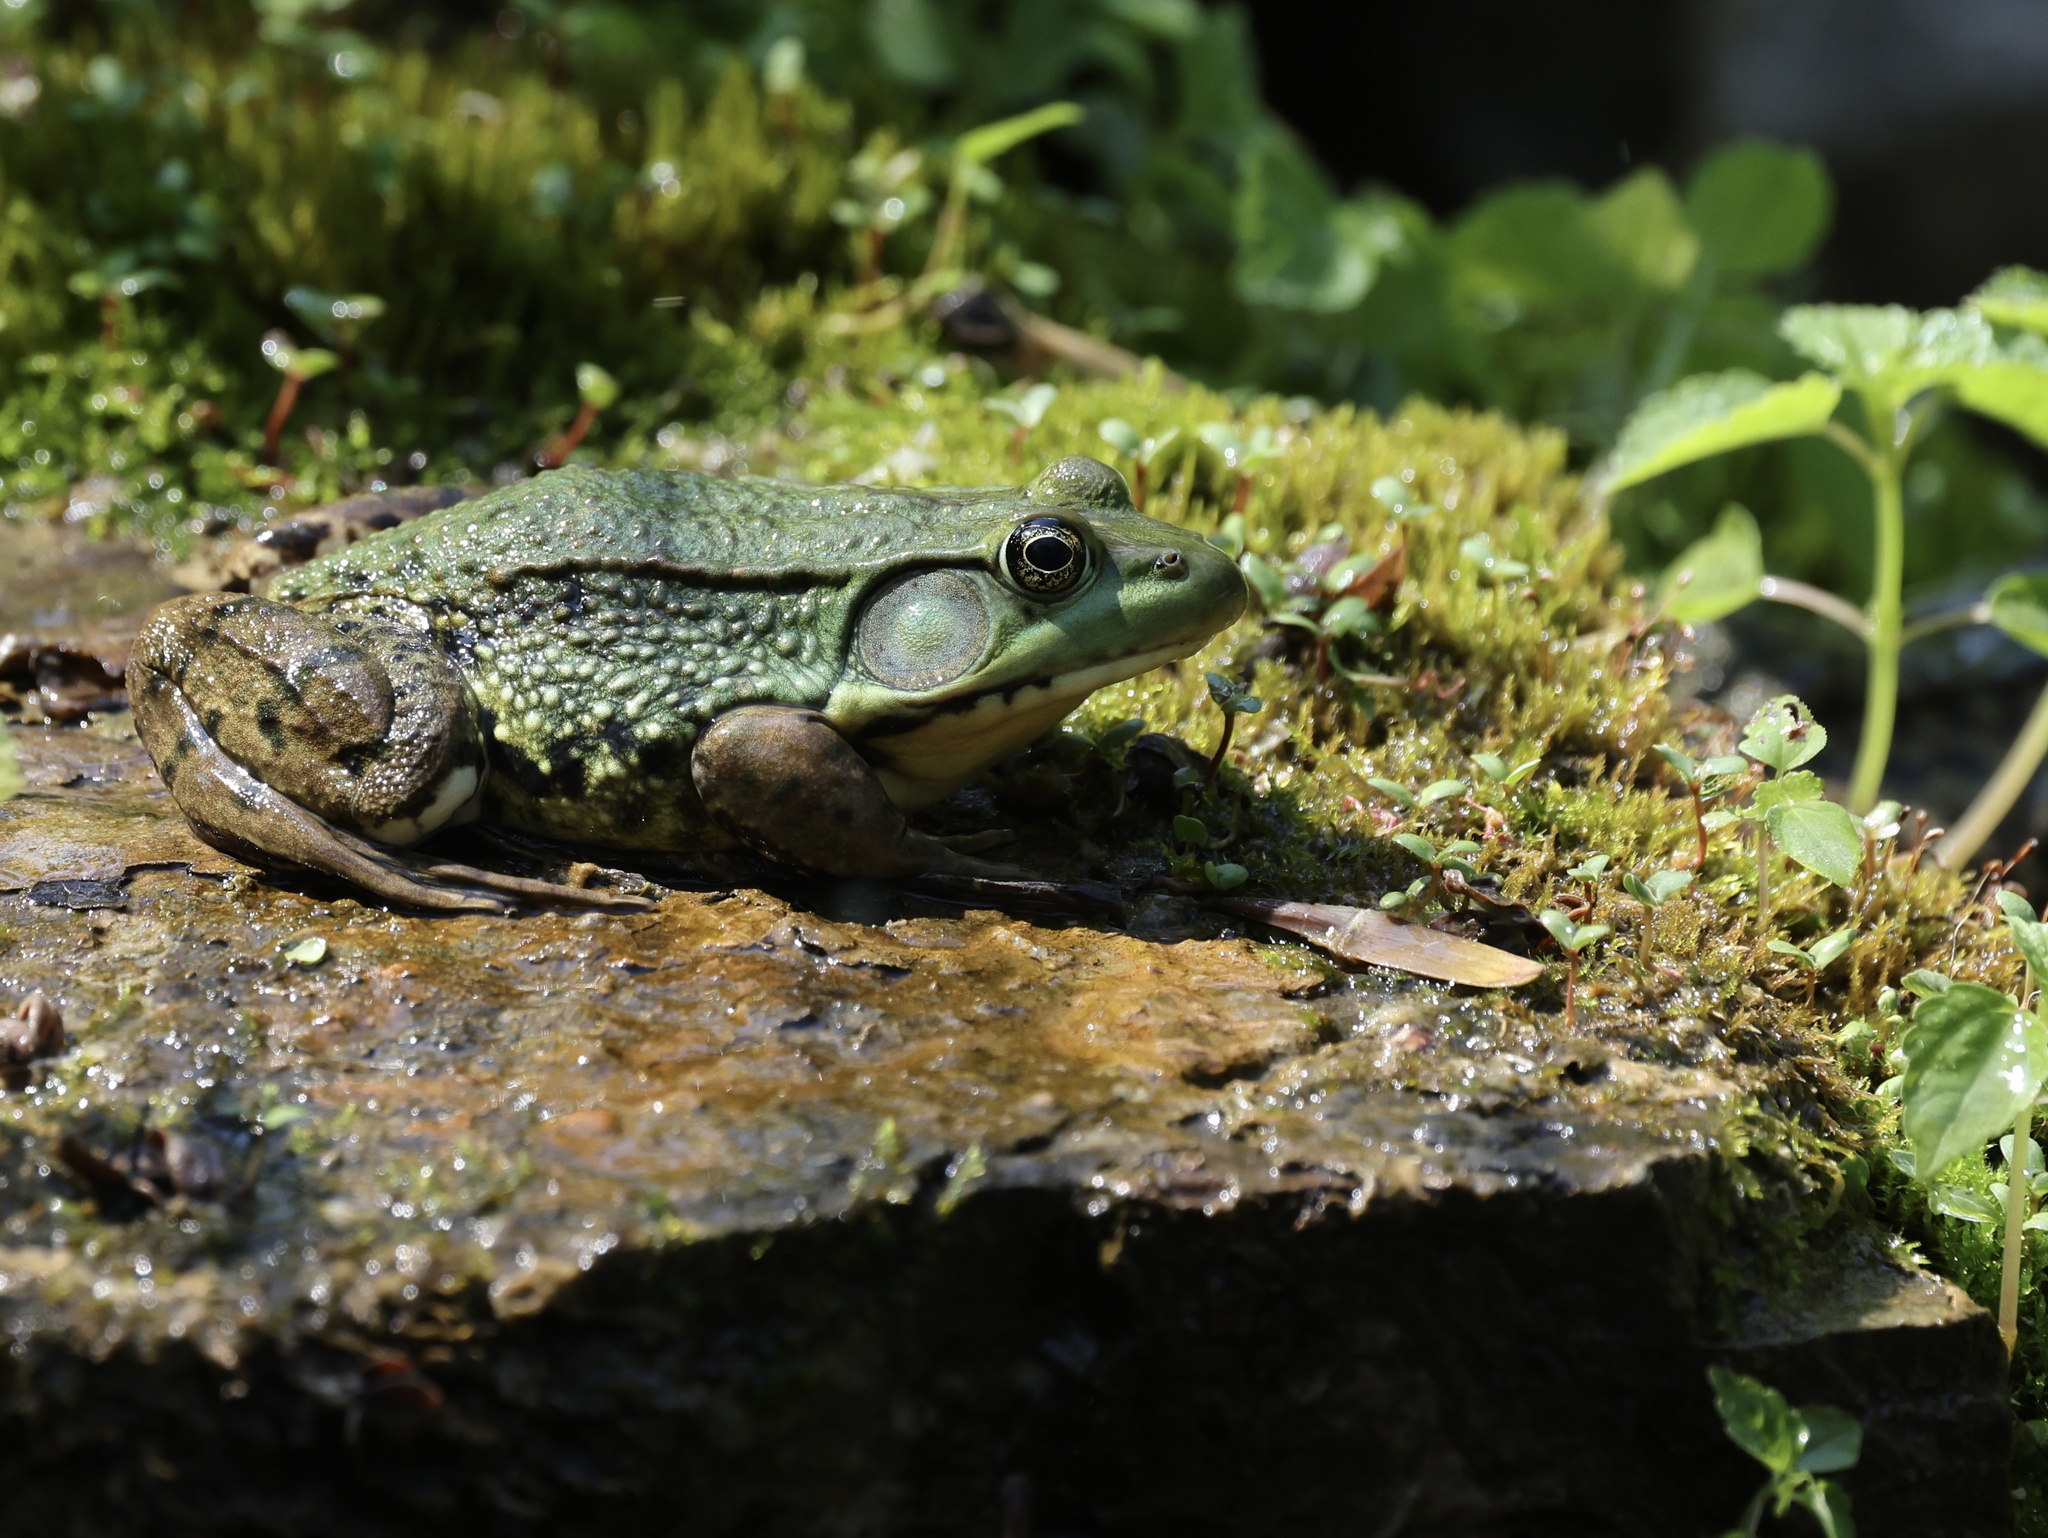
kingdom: Animalia
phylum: Chordata
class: Amphibia
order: Anura
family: Ranidae
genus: Lithobates
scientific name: Lithobates clamitans
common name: Green frog
